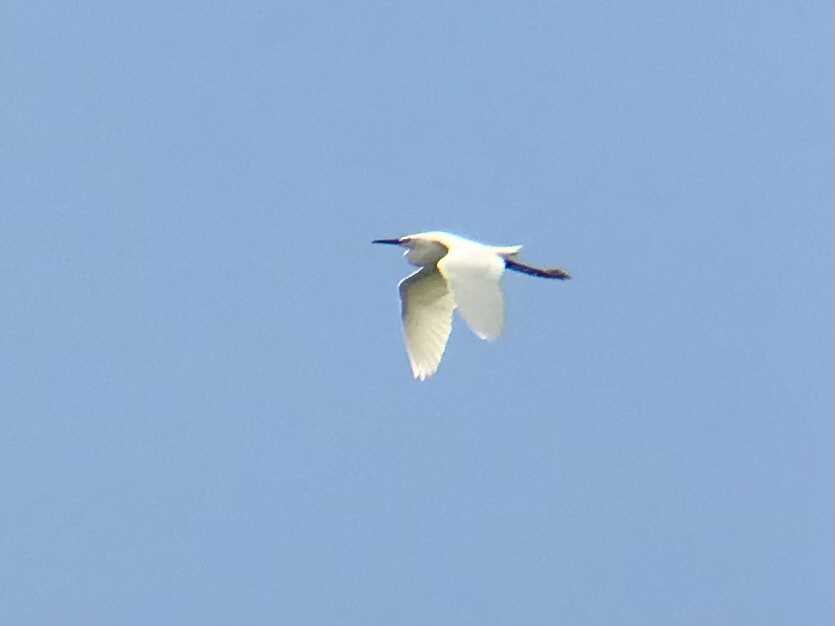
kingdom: Animalia
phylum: Chordata
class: Aves
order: Pelecaniformes
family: Ardeidae
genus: Ardea
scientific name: Ardea alba
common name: Great egret
